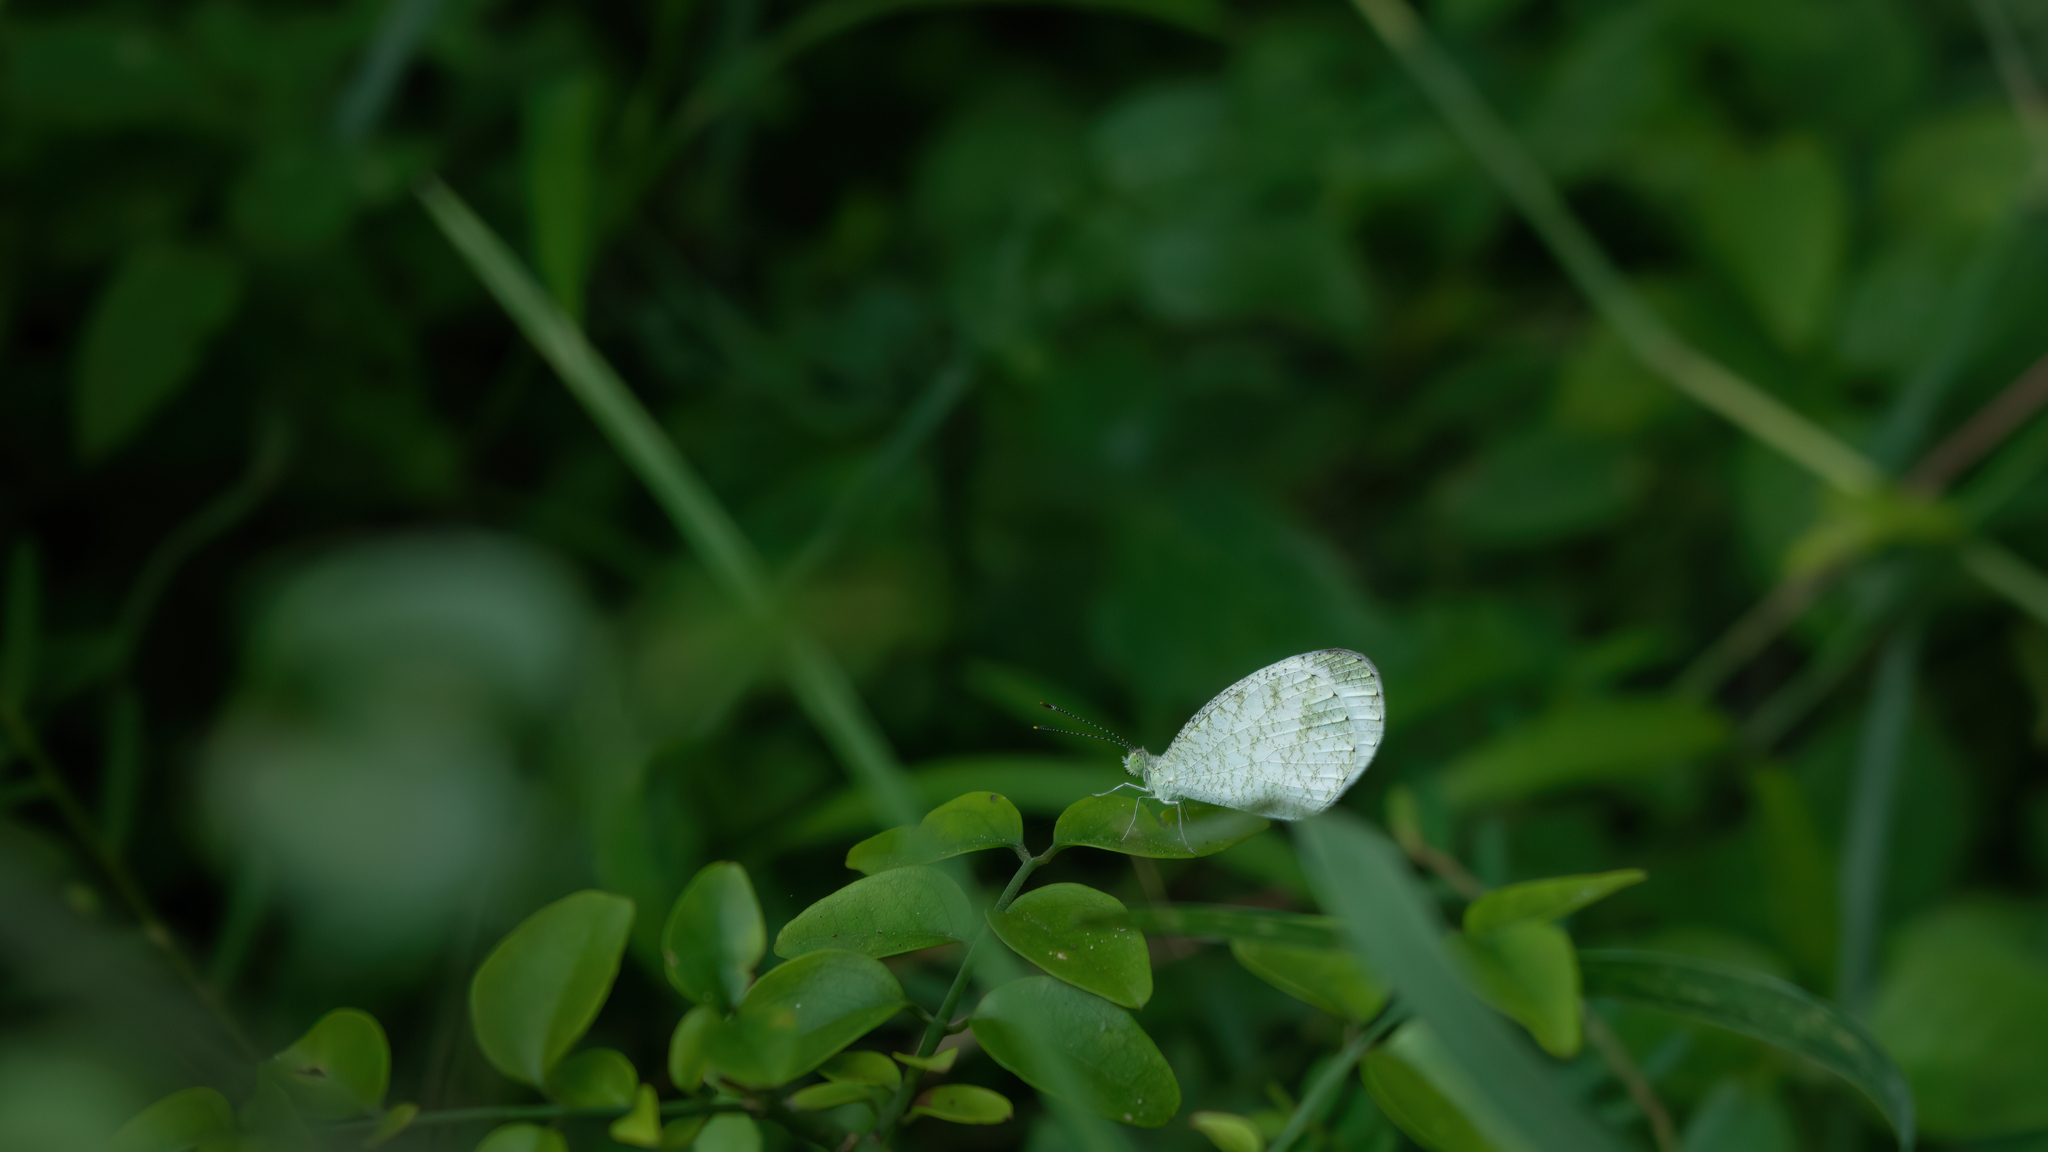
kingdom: Animalia
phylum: Arthropoda
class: Insecta
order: Lepidoptera
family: Pieridae
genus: Leptosia
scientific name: Leptosia nina
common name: Psyche
